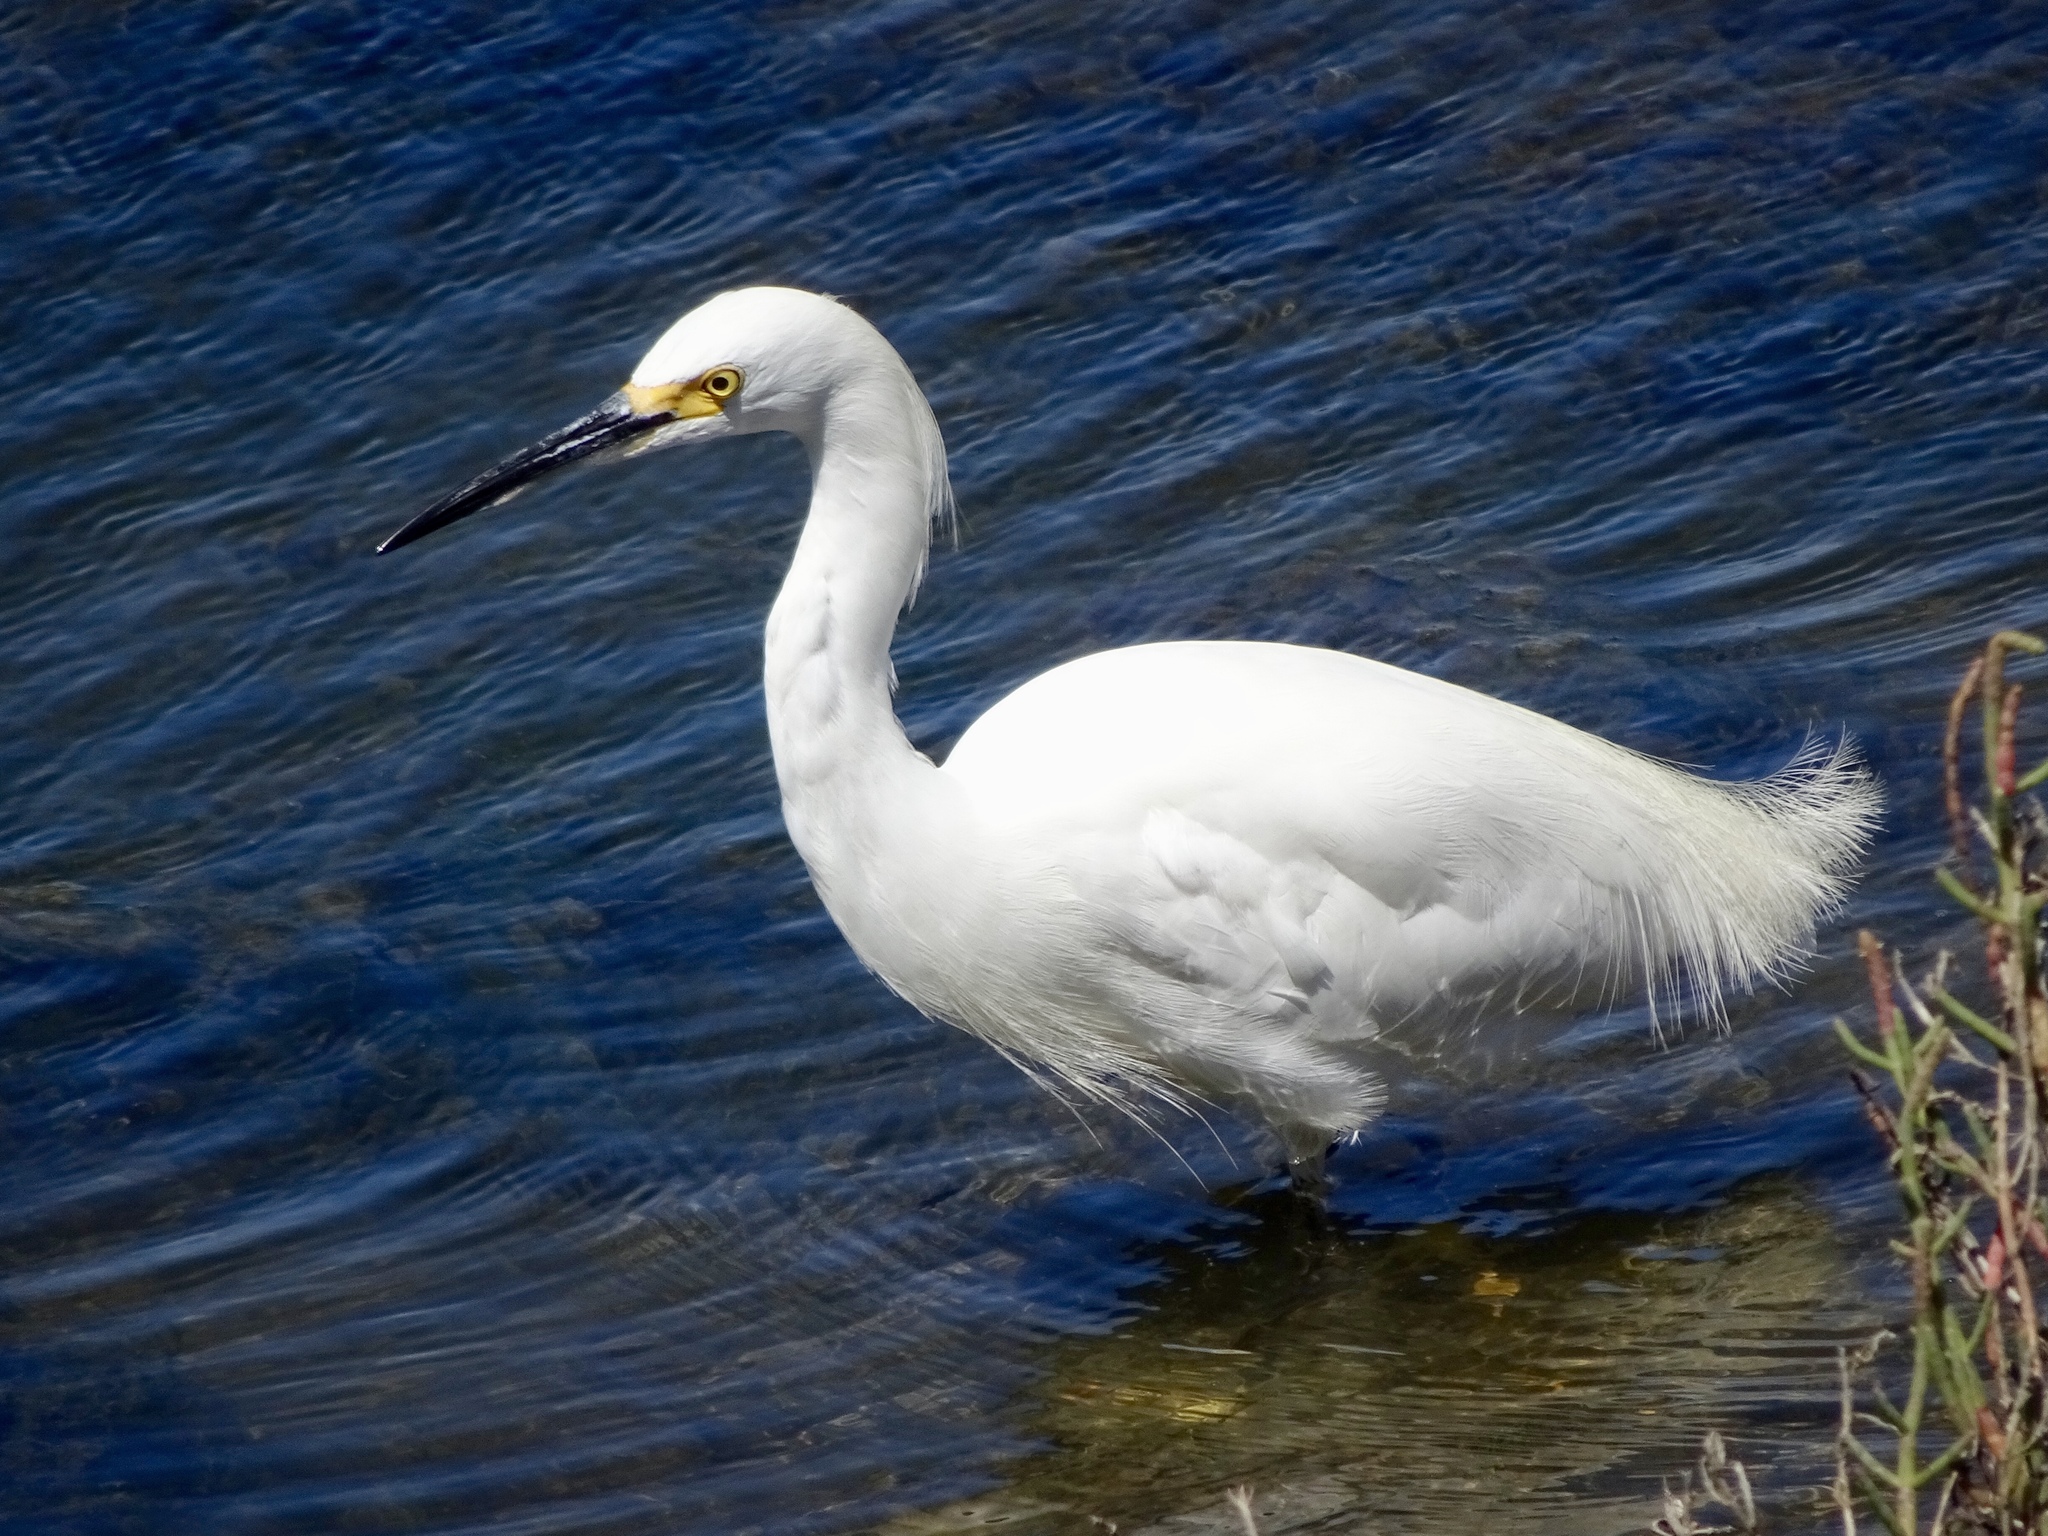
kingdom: Animalia
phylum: Chordata
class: Aves
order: Pelecaniformes
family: Ardeidae
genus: Egretta
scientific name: Egretta thula
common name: Snowy egret
